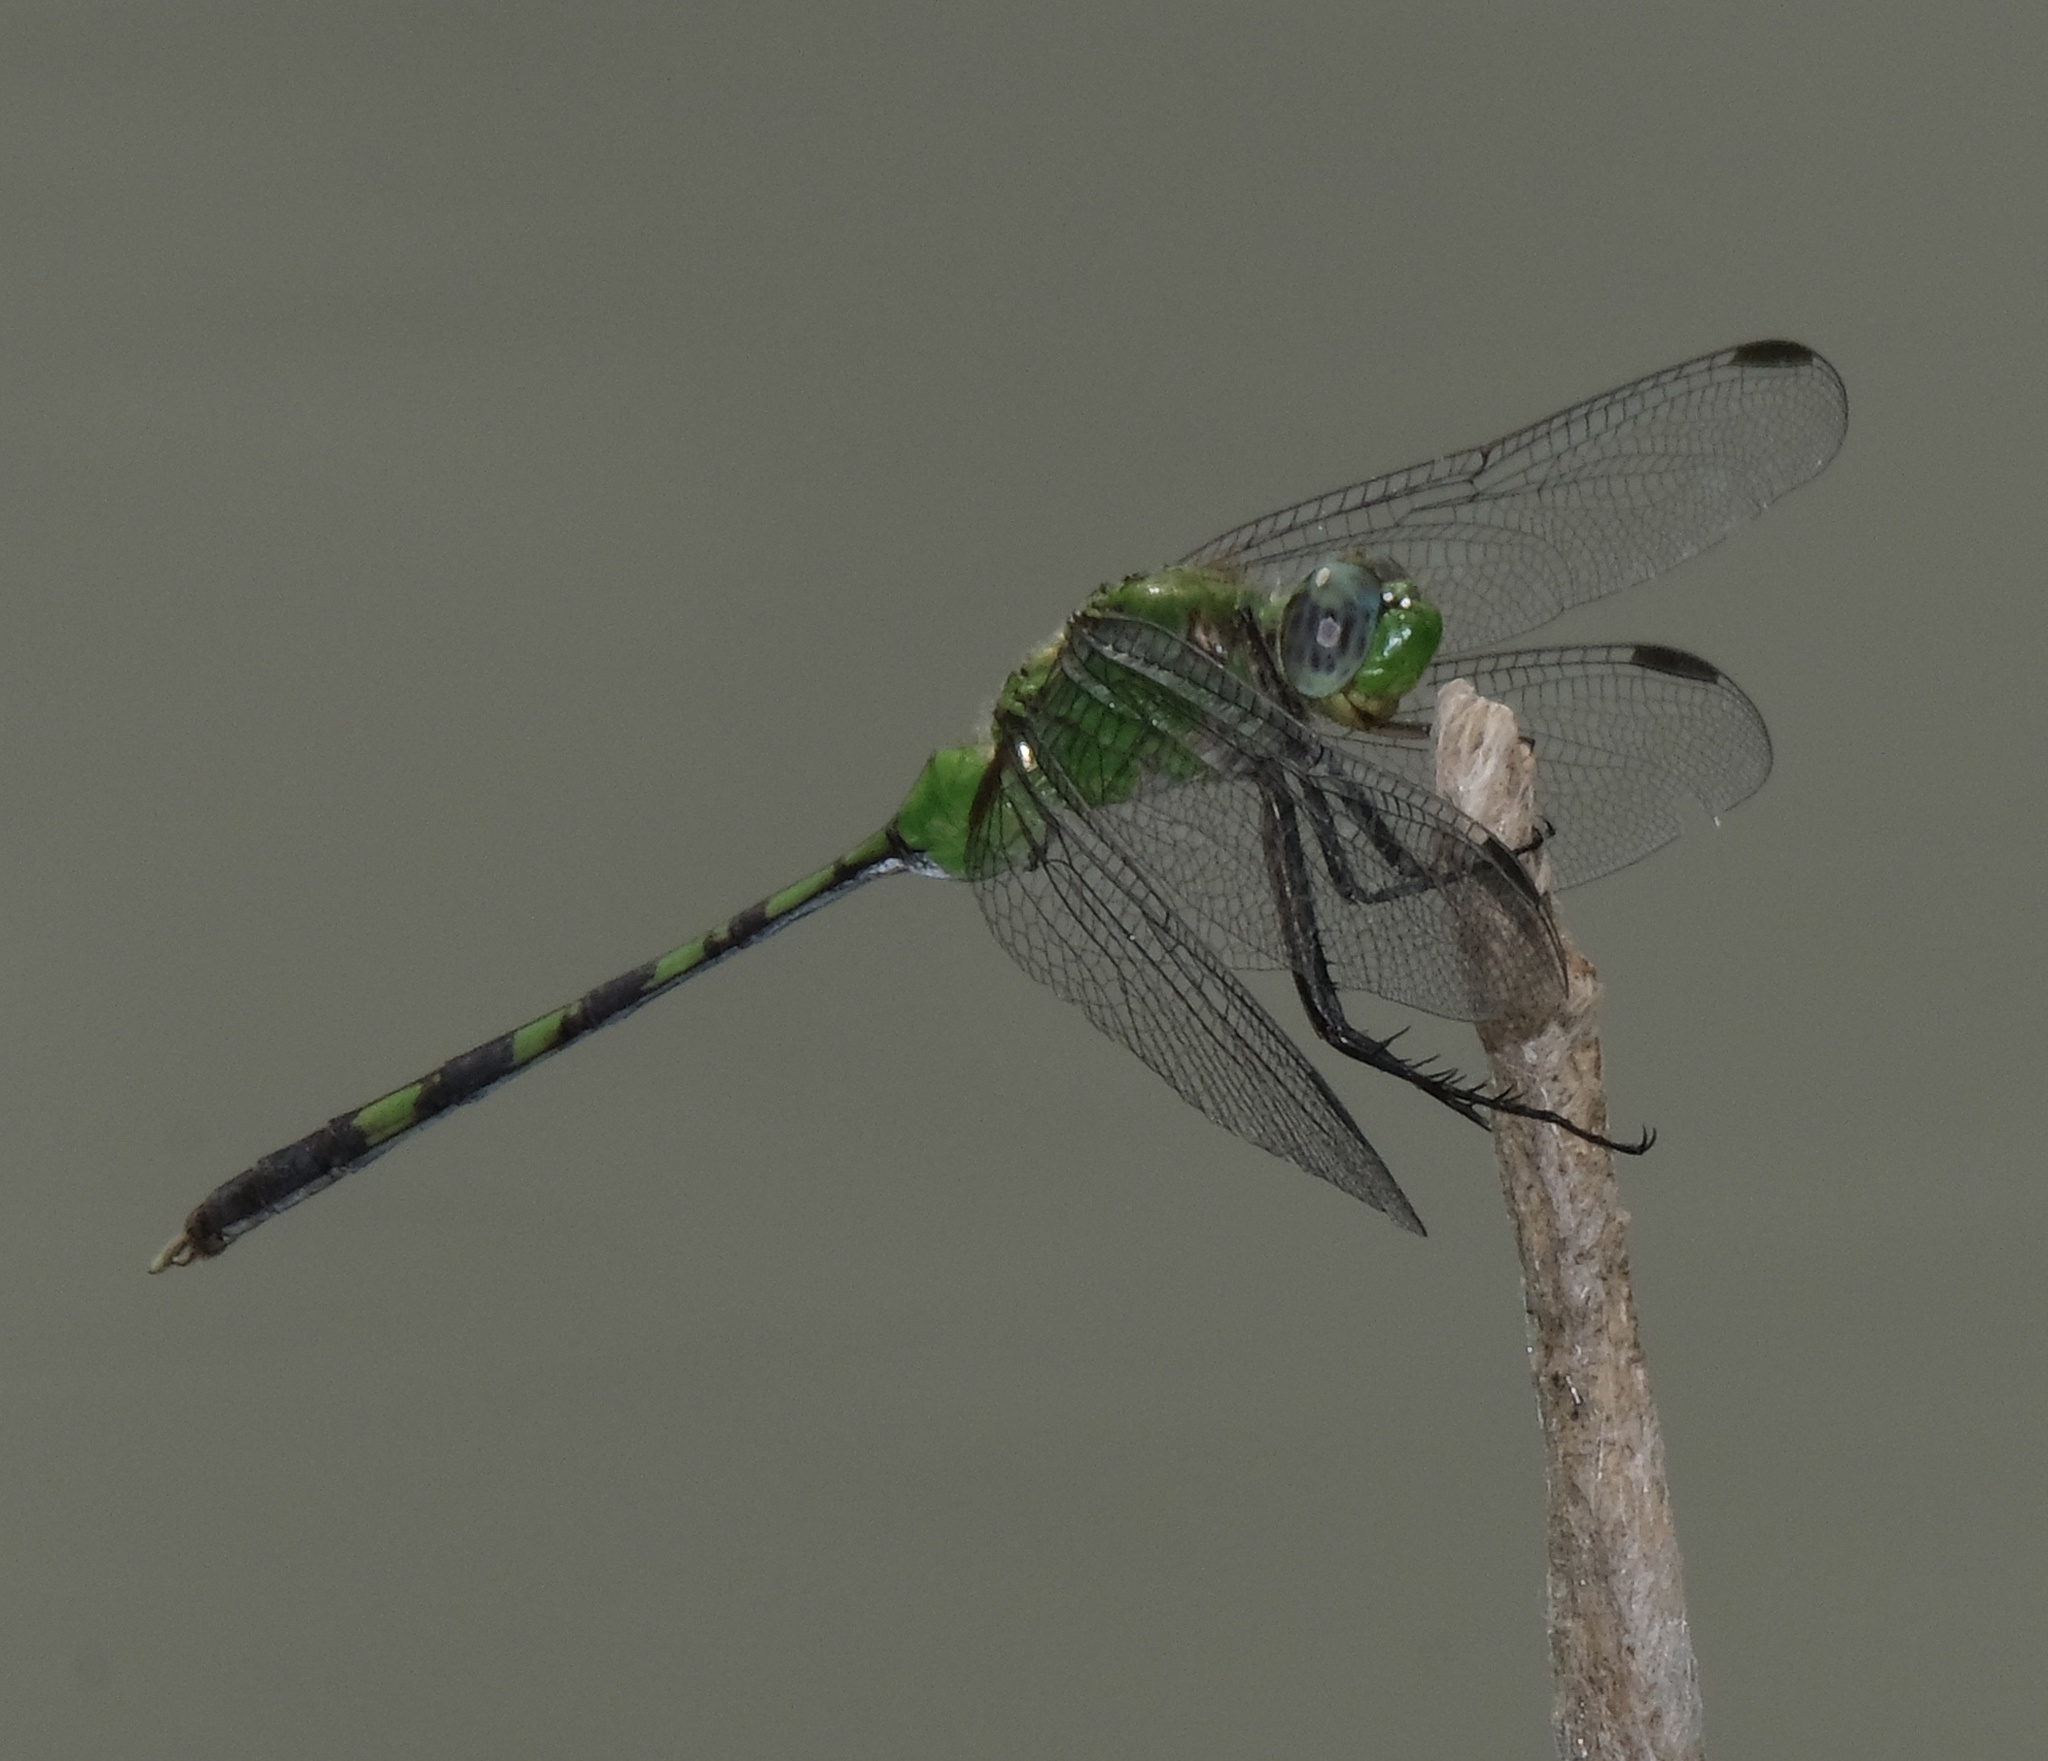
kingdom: Animalia
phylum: Arthropoda
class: Insecta
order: Odonata
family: Libellulidae
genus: Erythemis
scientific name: Erythemis vesiculosa
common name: Great pondhawk
